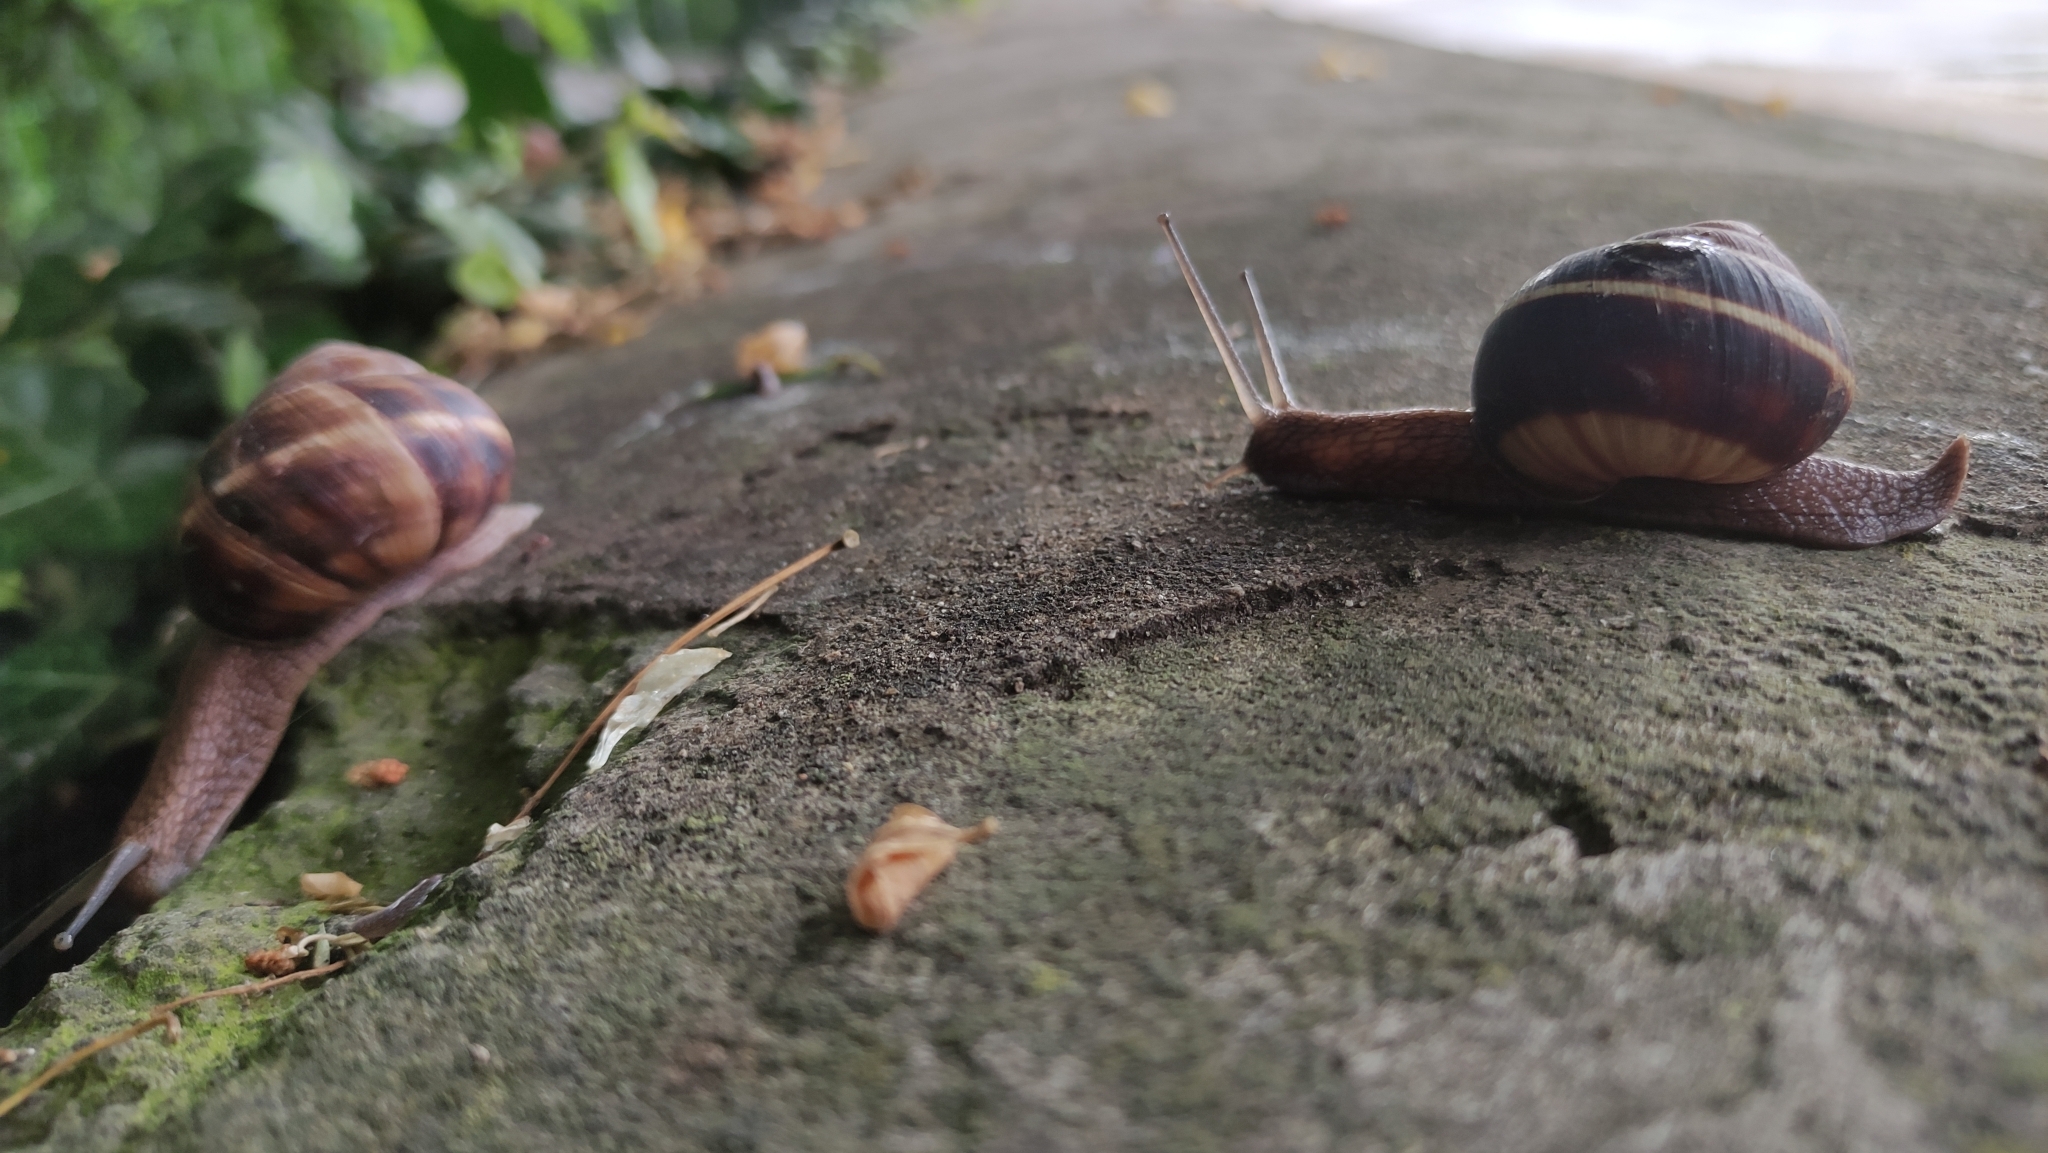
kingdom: Animalia
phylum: Mollusca
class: Gastropoda
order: Stylommatophora
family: Helicidae
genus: Helix
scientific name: Helix lucorum
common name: Turkish snail
